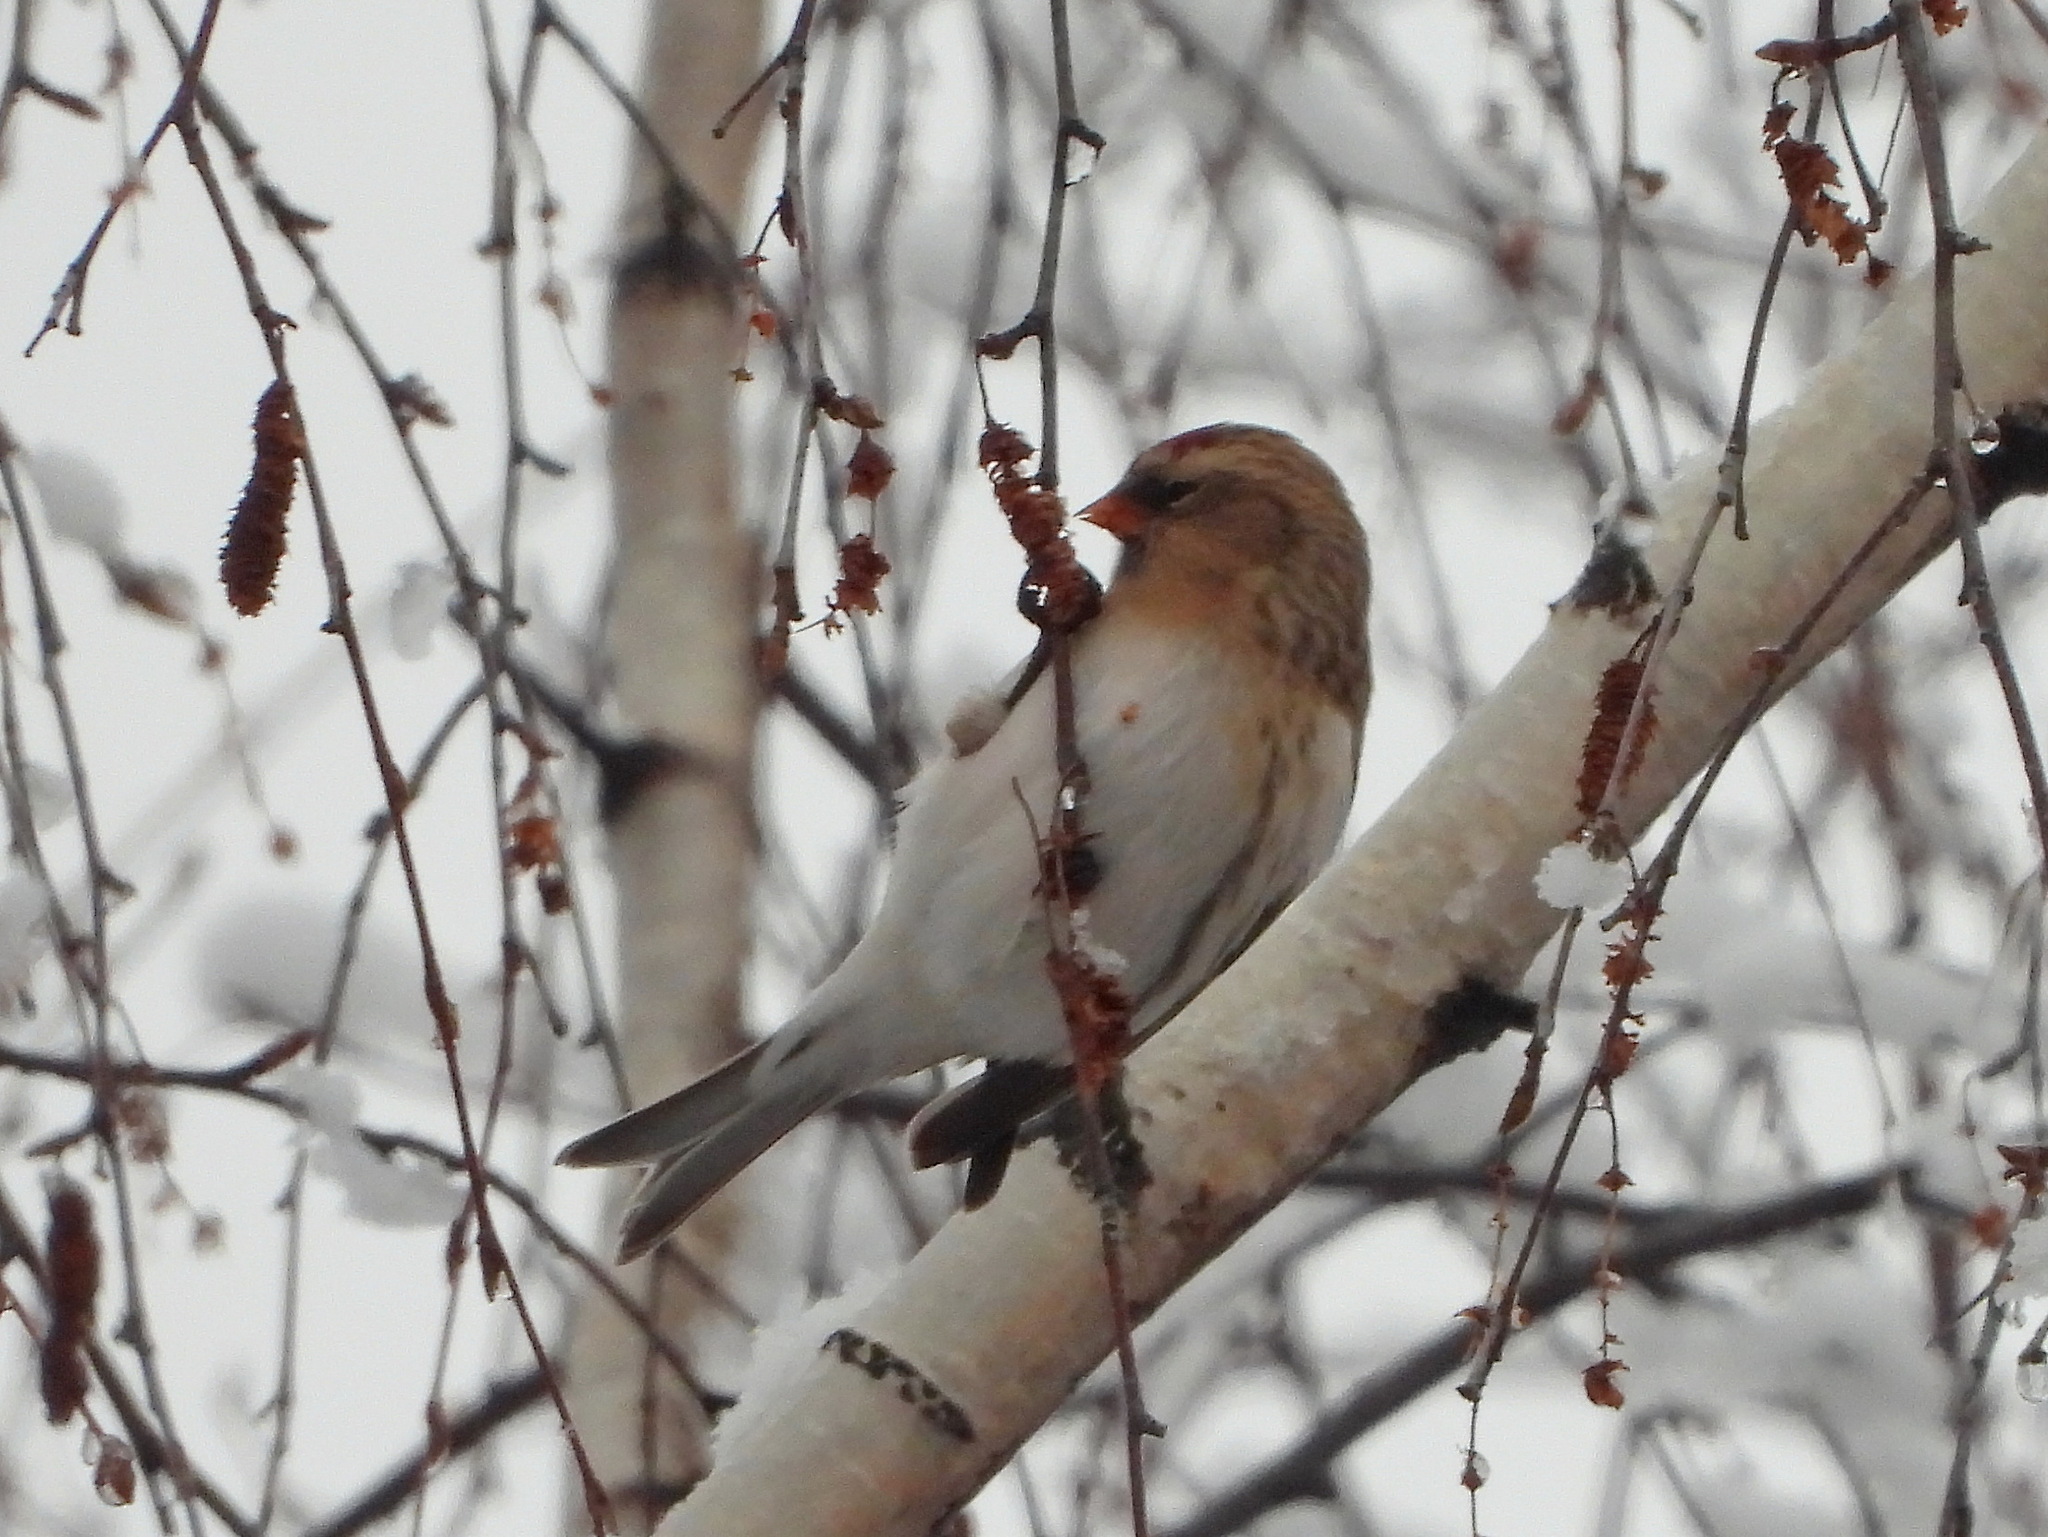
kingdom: Animalia
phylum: Chordata
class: Aves
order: Passeriformes
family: Fringillidae
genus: Acanthis
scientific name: Acanthis flammea
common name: Common redpoll
